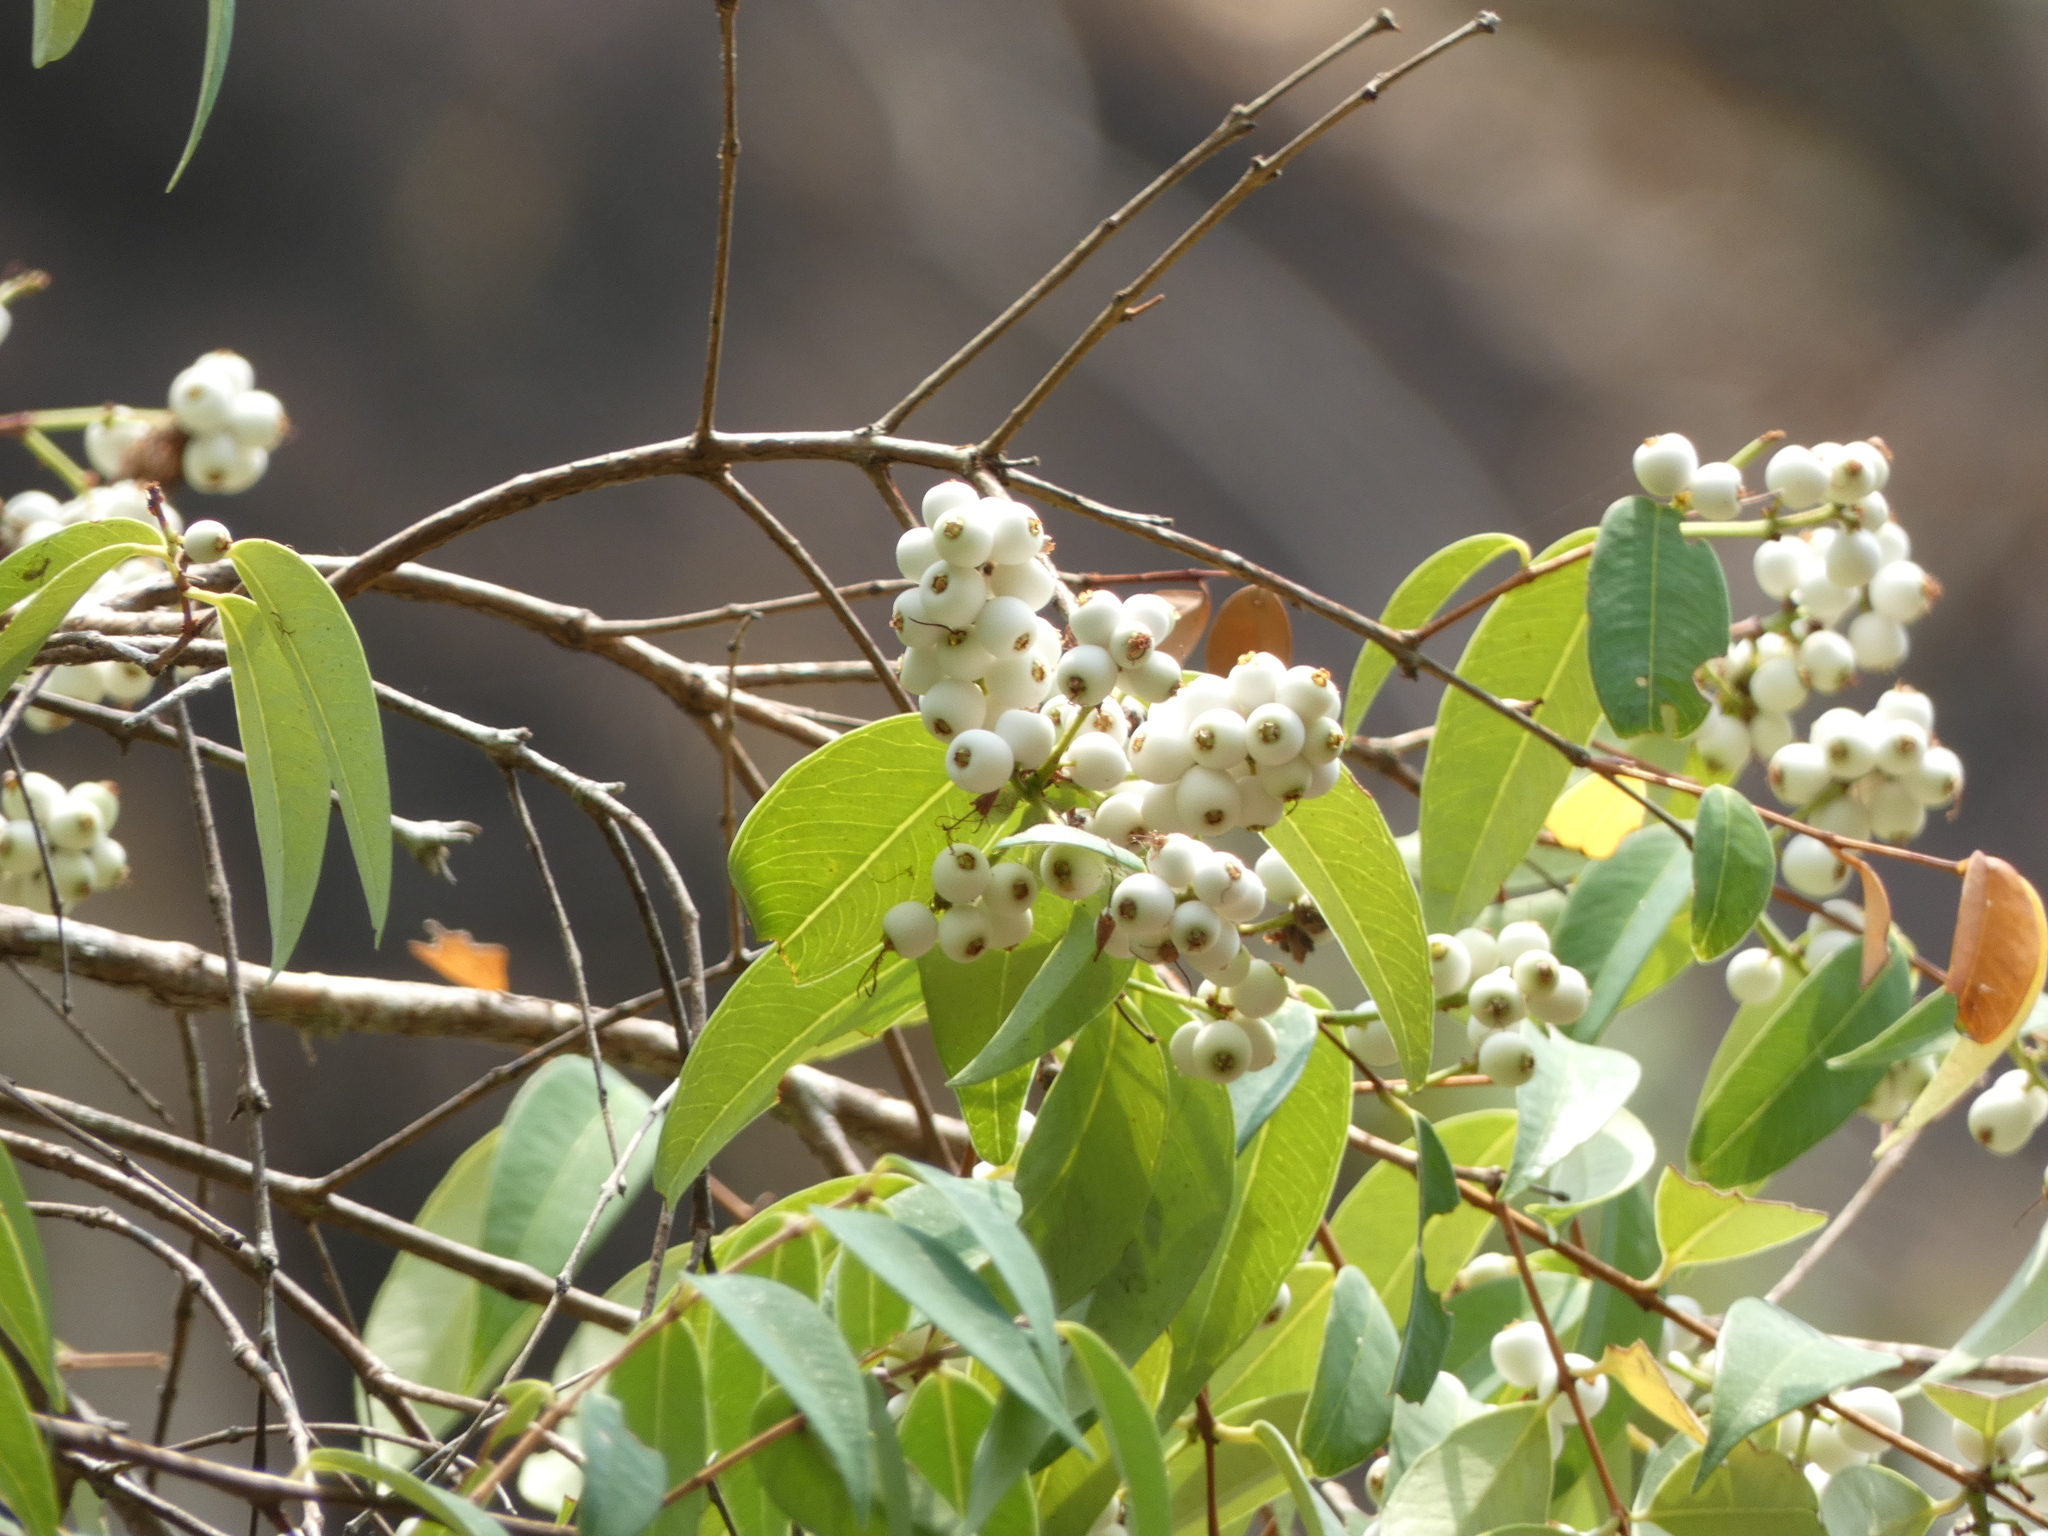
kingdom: Plantae
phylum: Tracheophyta
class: Magnoliopsida
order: Myrtales
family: Myrtaceae
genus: Syzygium
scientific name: Syzygium antisepticum
